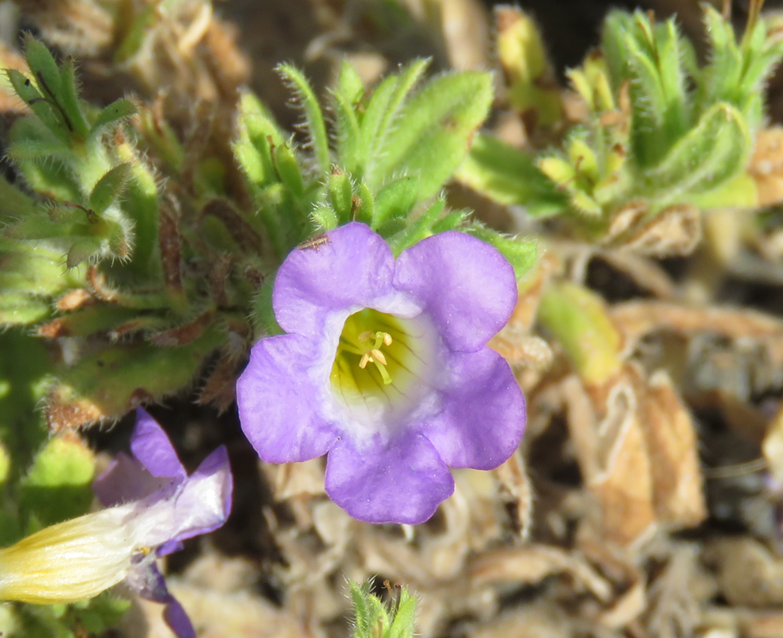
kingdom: Plantae
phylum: Tracheophyta
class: Magnoliopsida
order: Boraginales
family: Namaceae
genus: Nama
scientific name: Nama hispida
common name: Bristly nama
